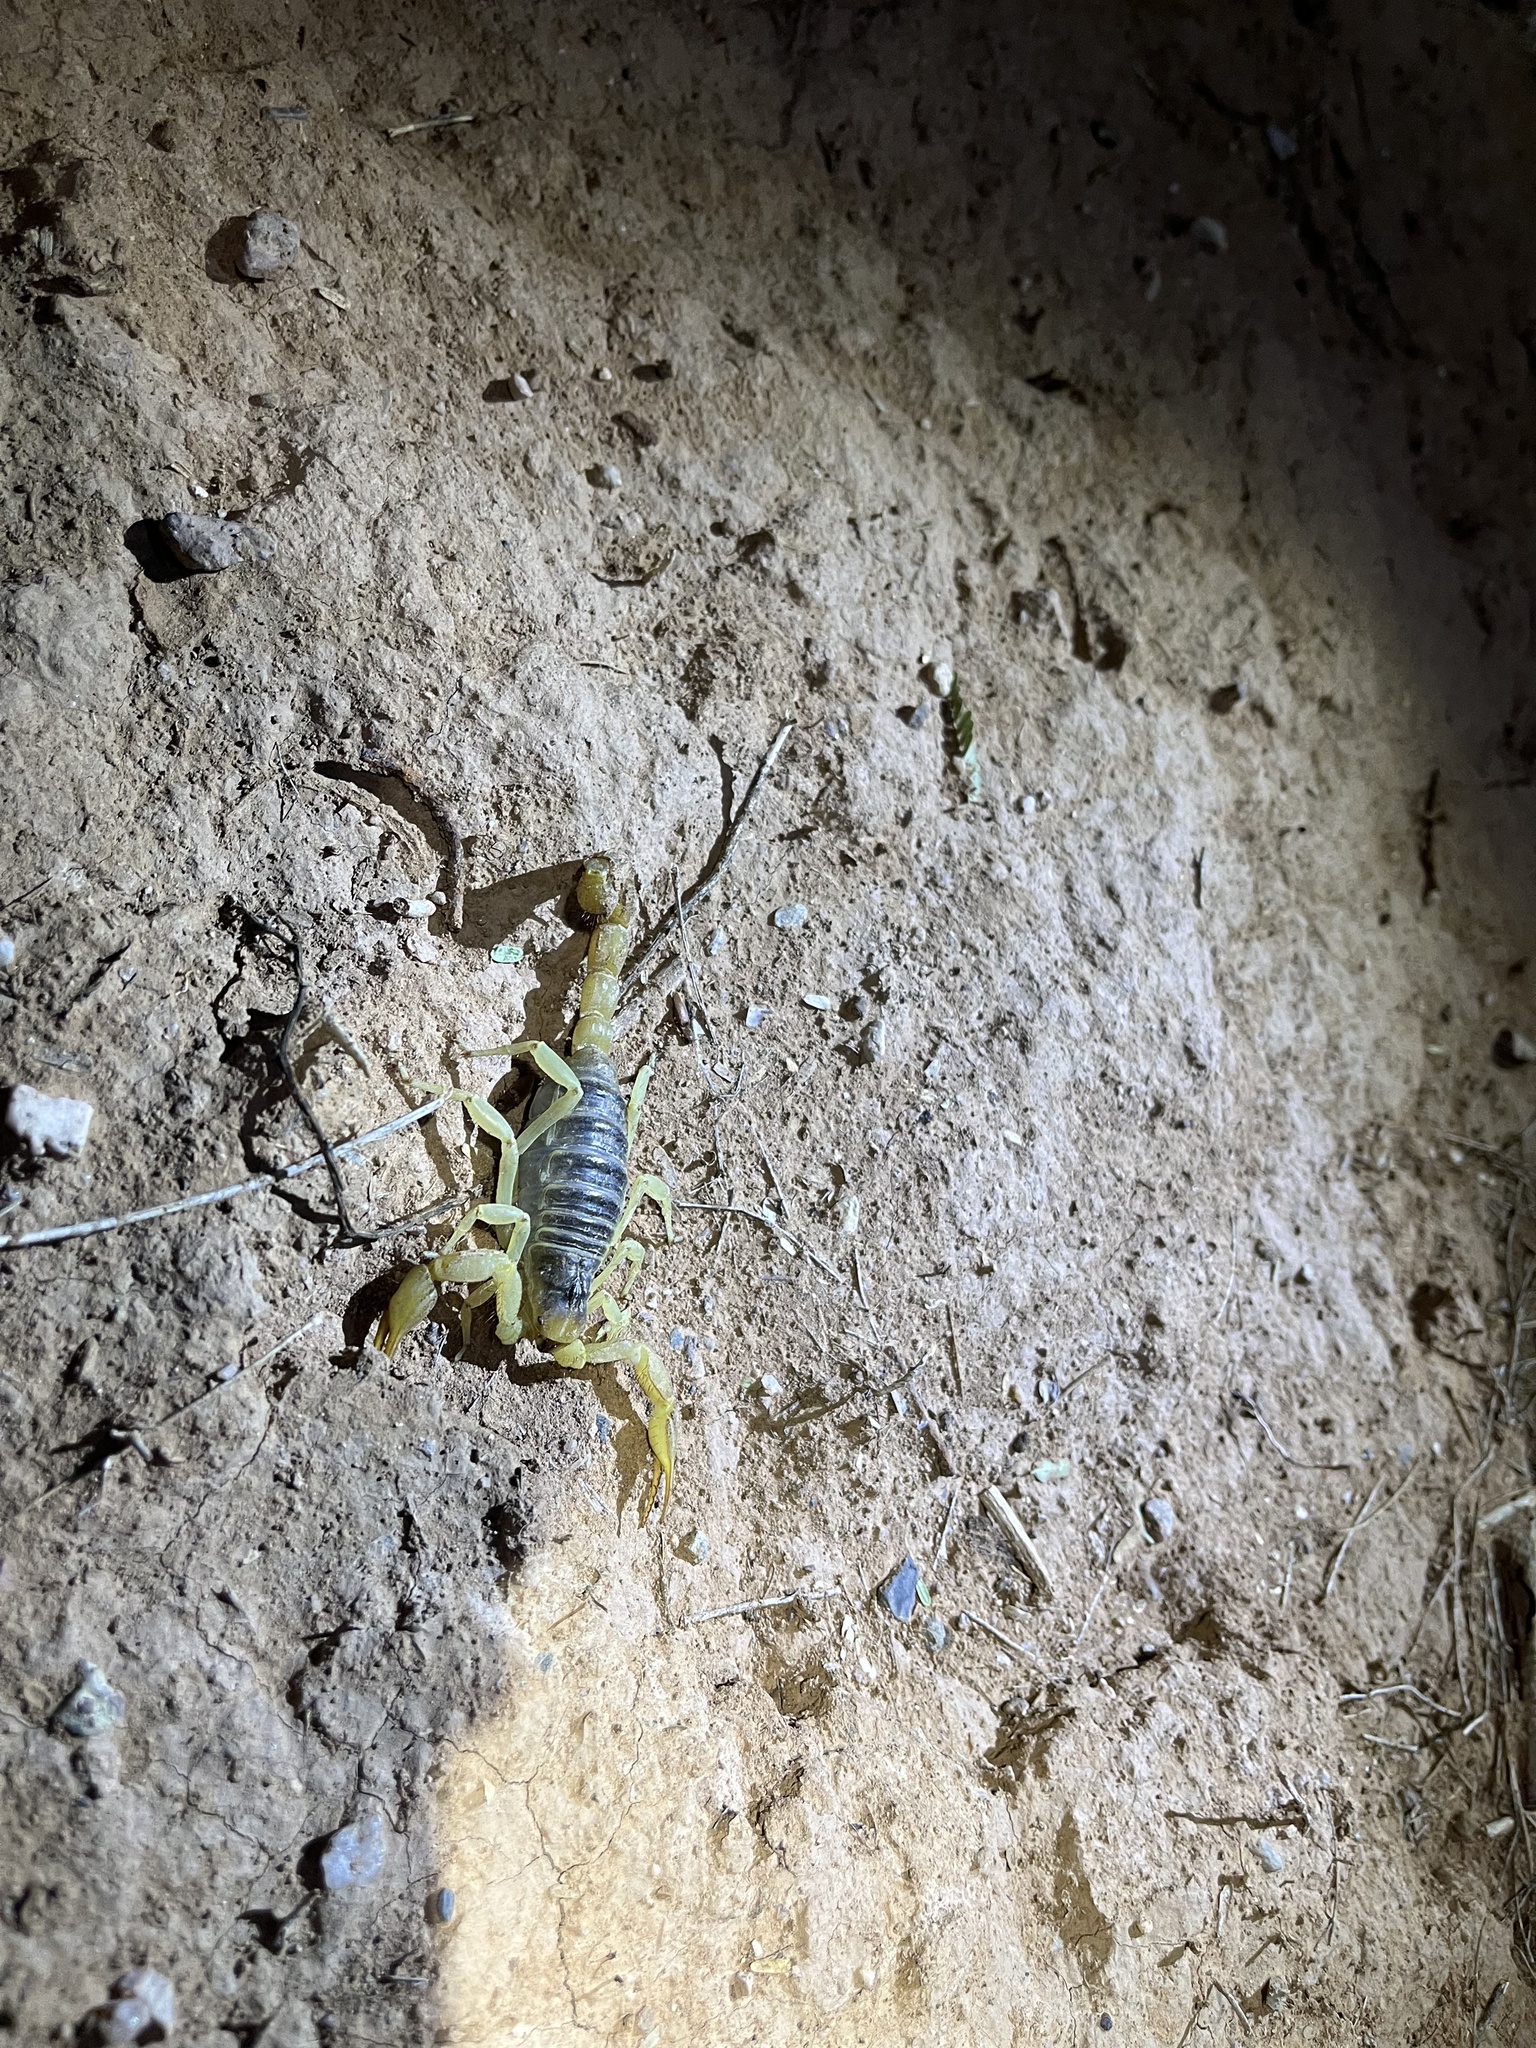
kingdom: Animalia
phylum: Arthropoda
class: Arachnida
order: Scorpiones
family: Hadruridae
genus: Hadrurus
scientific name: Hadrurus arizonensis
